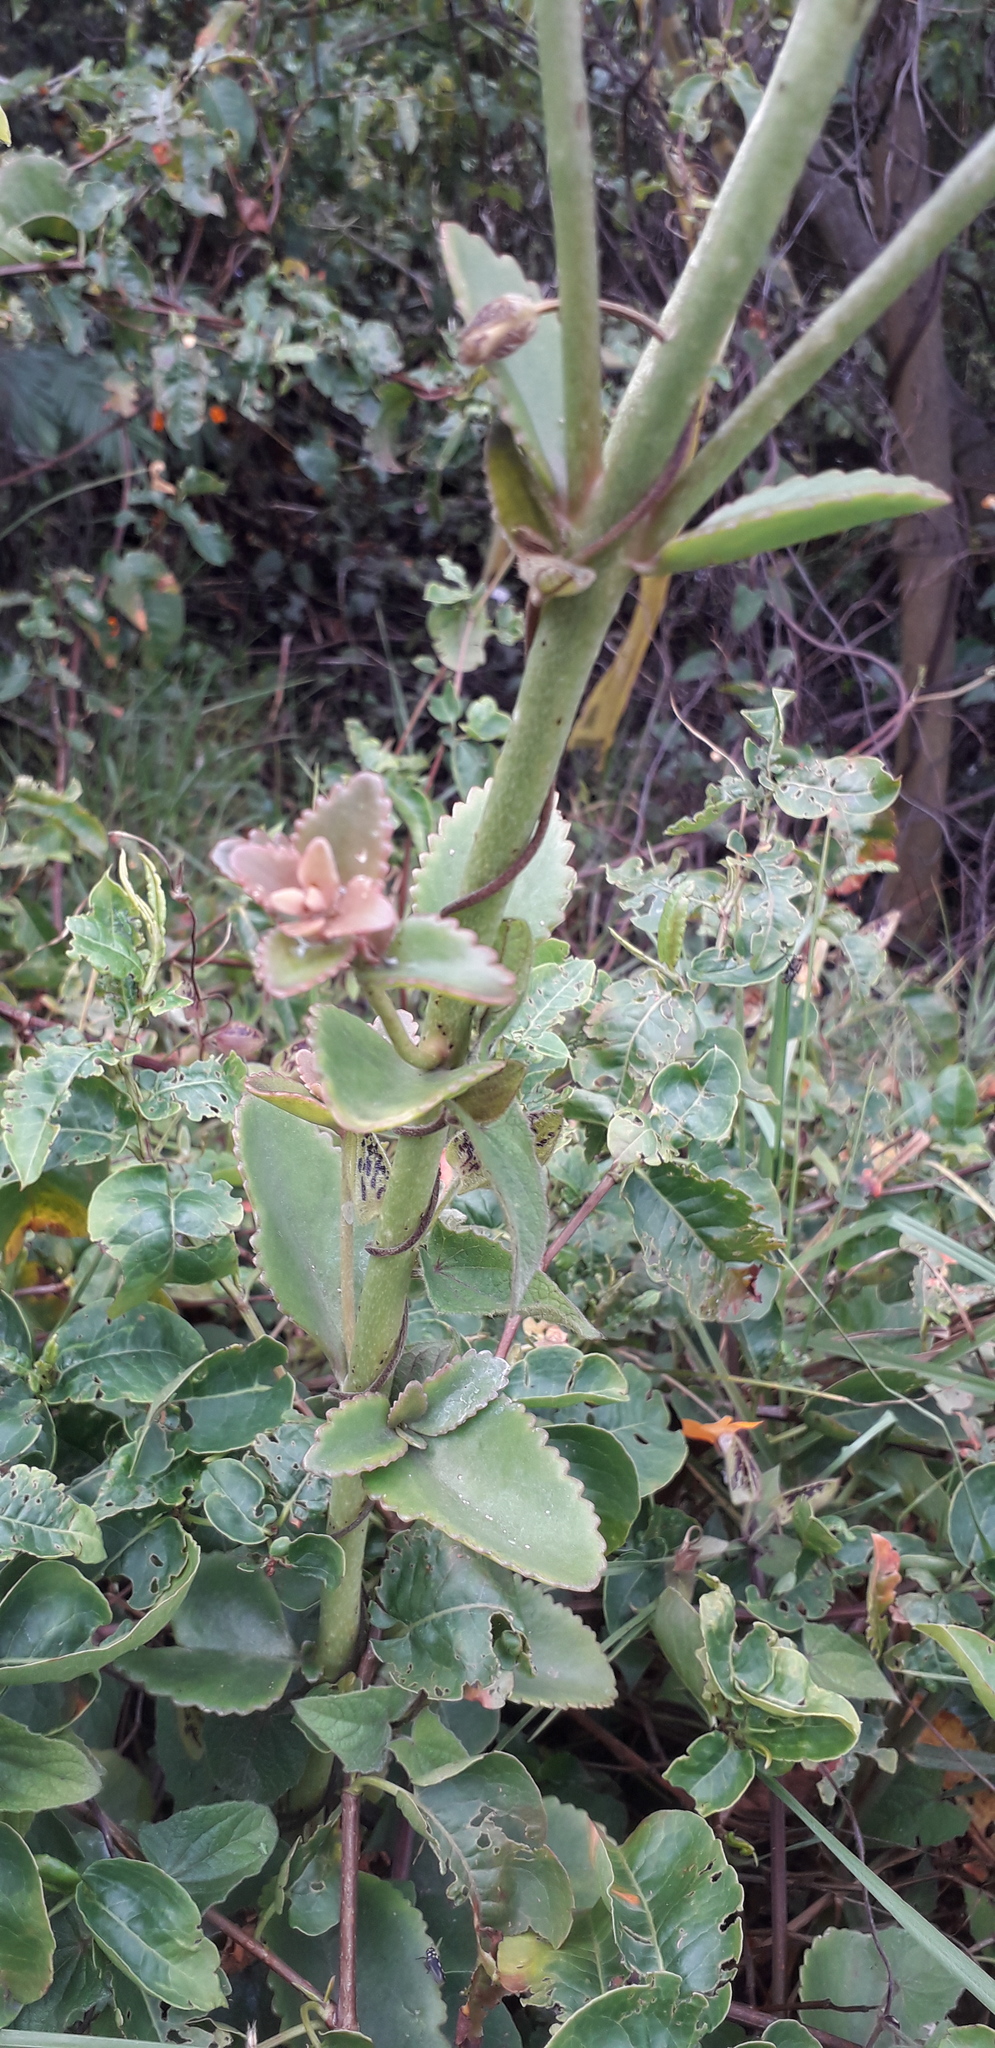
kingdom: Plantae
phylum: Tracheophyta
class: Magnoliopsida
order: Saxifragales
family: Crassulaceae
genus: Kalanchoe
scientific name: Kalanchoe densiflora
